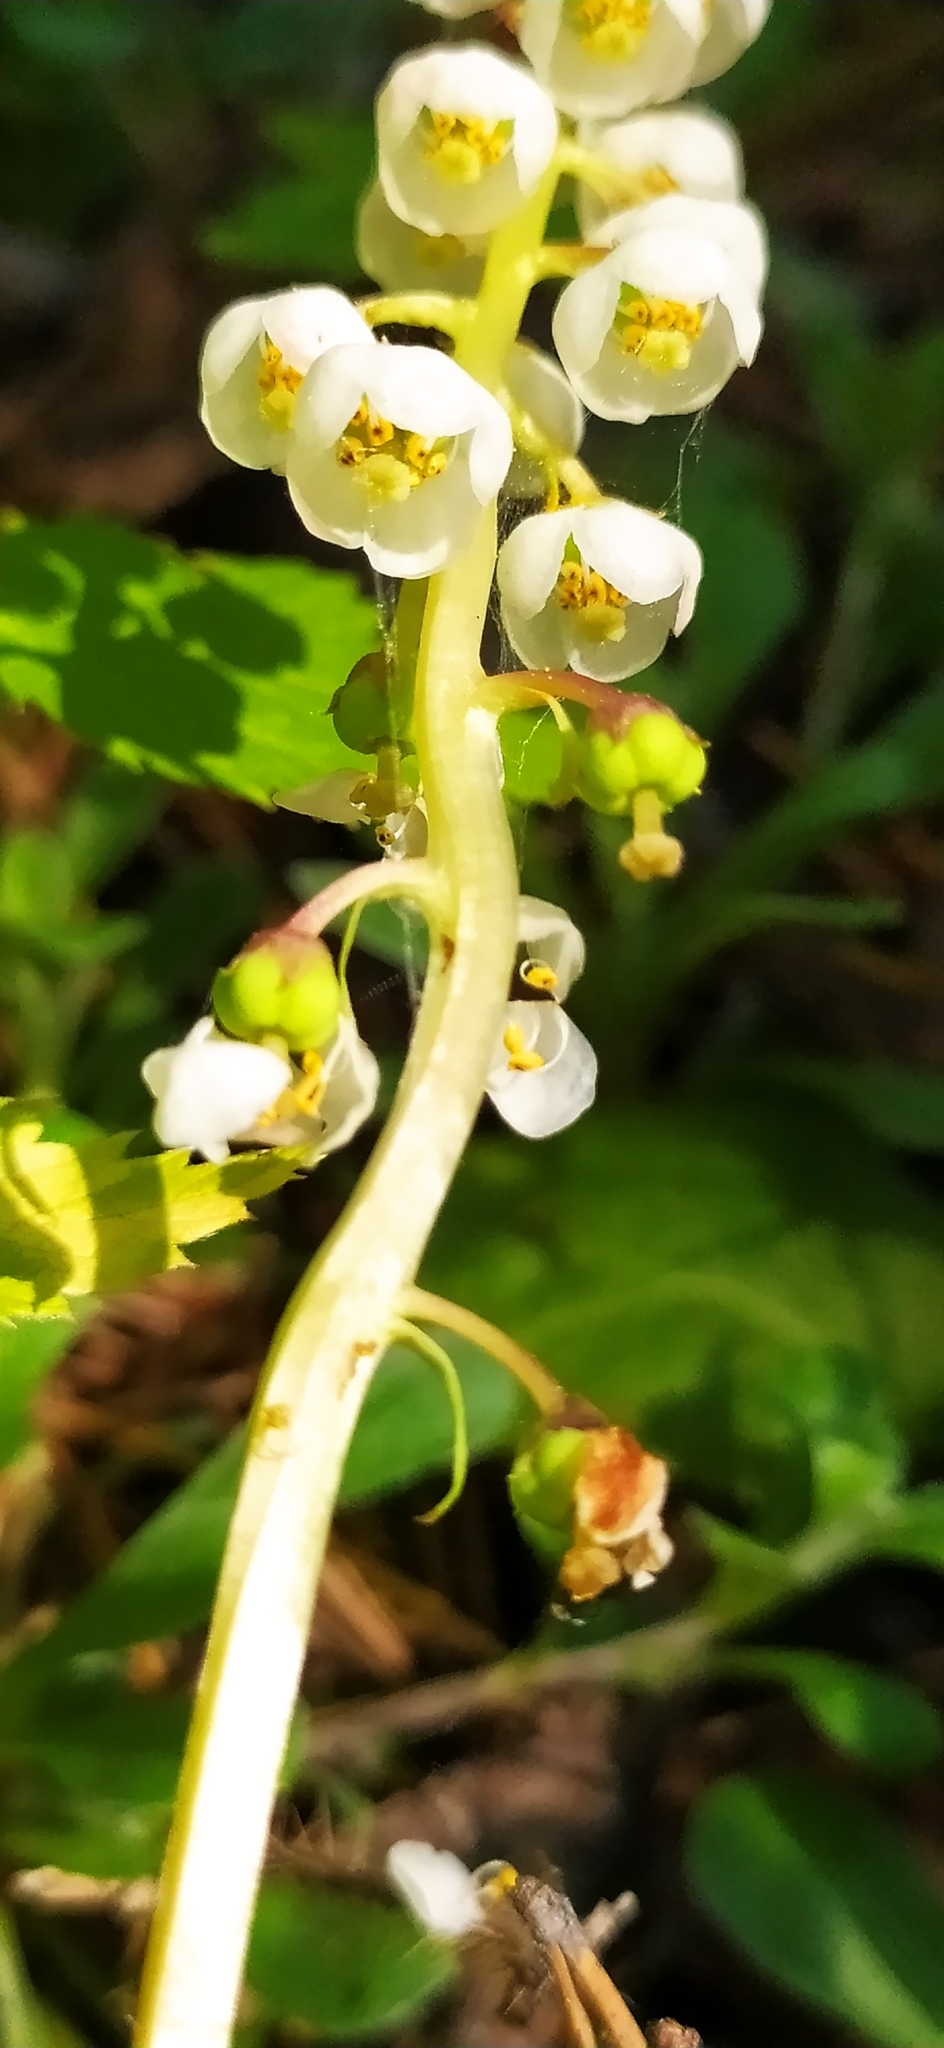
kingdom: Plantae
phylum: Tracheophyta
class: Magnoliopsida
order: Ericales
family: Ericaceae
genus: Pyrola
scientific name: Pyrola minor
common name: Common wintergreen
